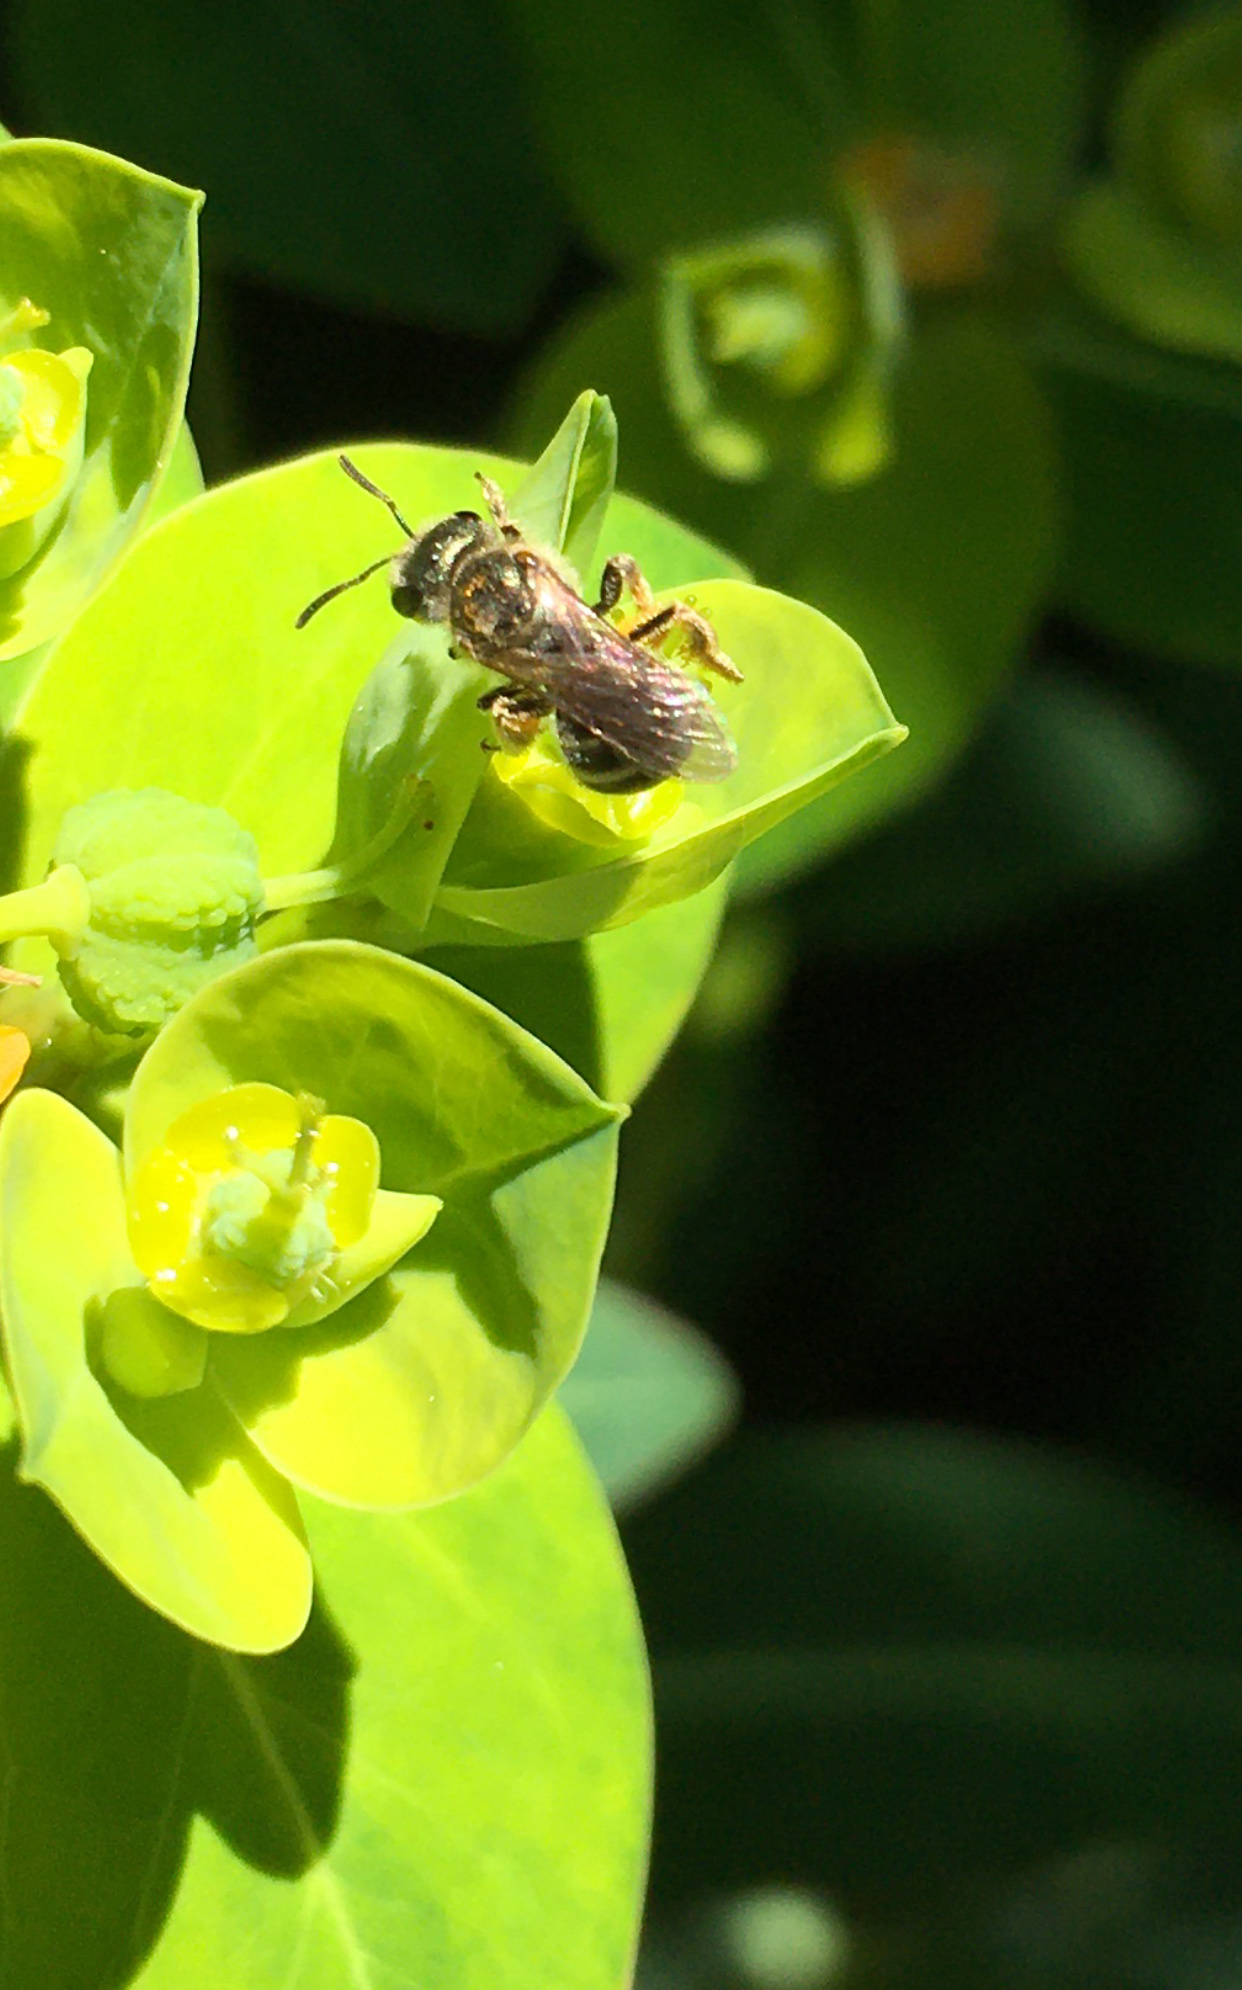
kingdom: Animalia
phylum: Arthropoda
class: Insecta
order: Hymenoptera
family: Halictidae
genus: Halictus
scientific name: Halictus tripartitus
